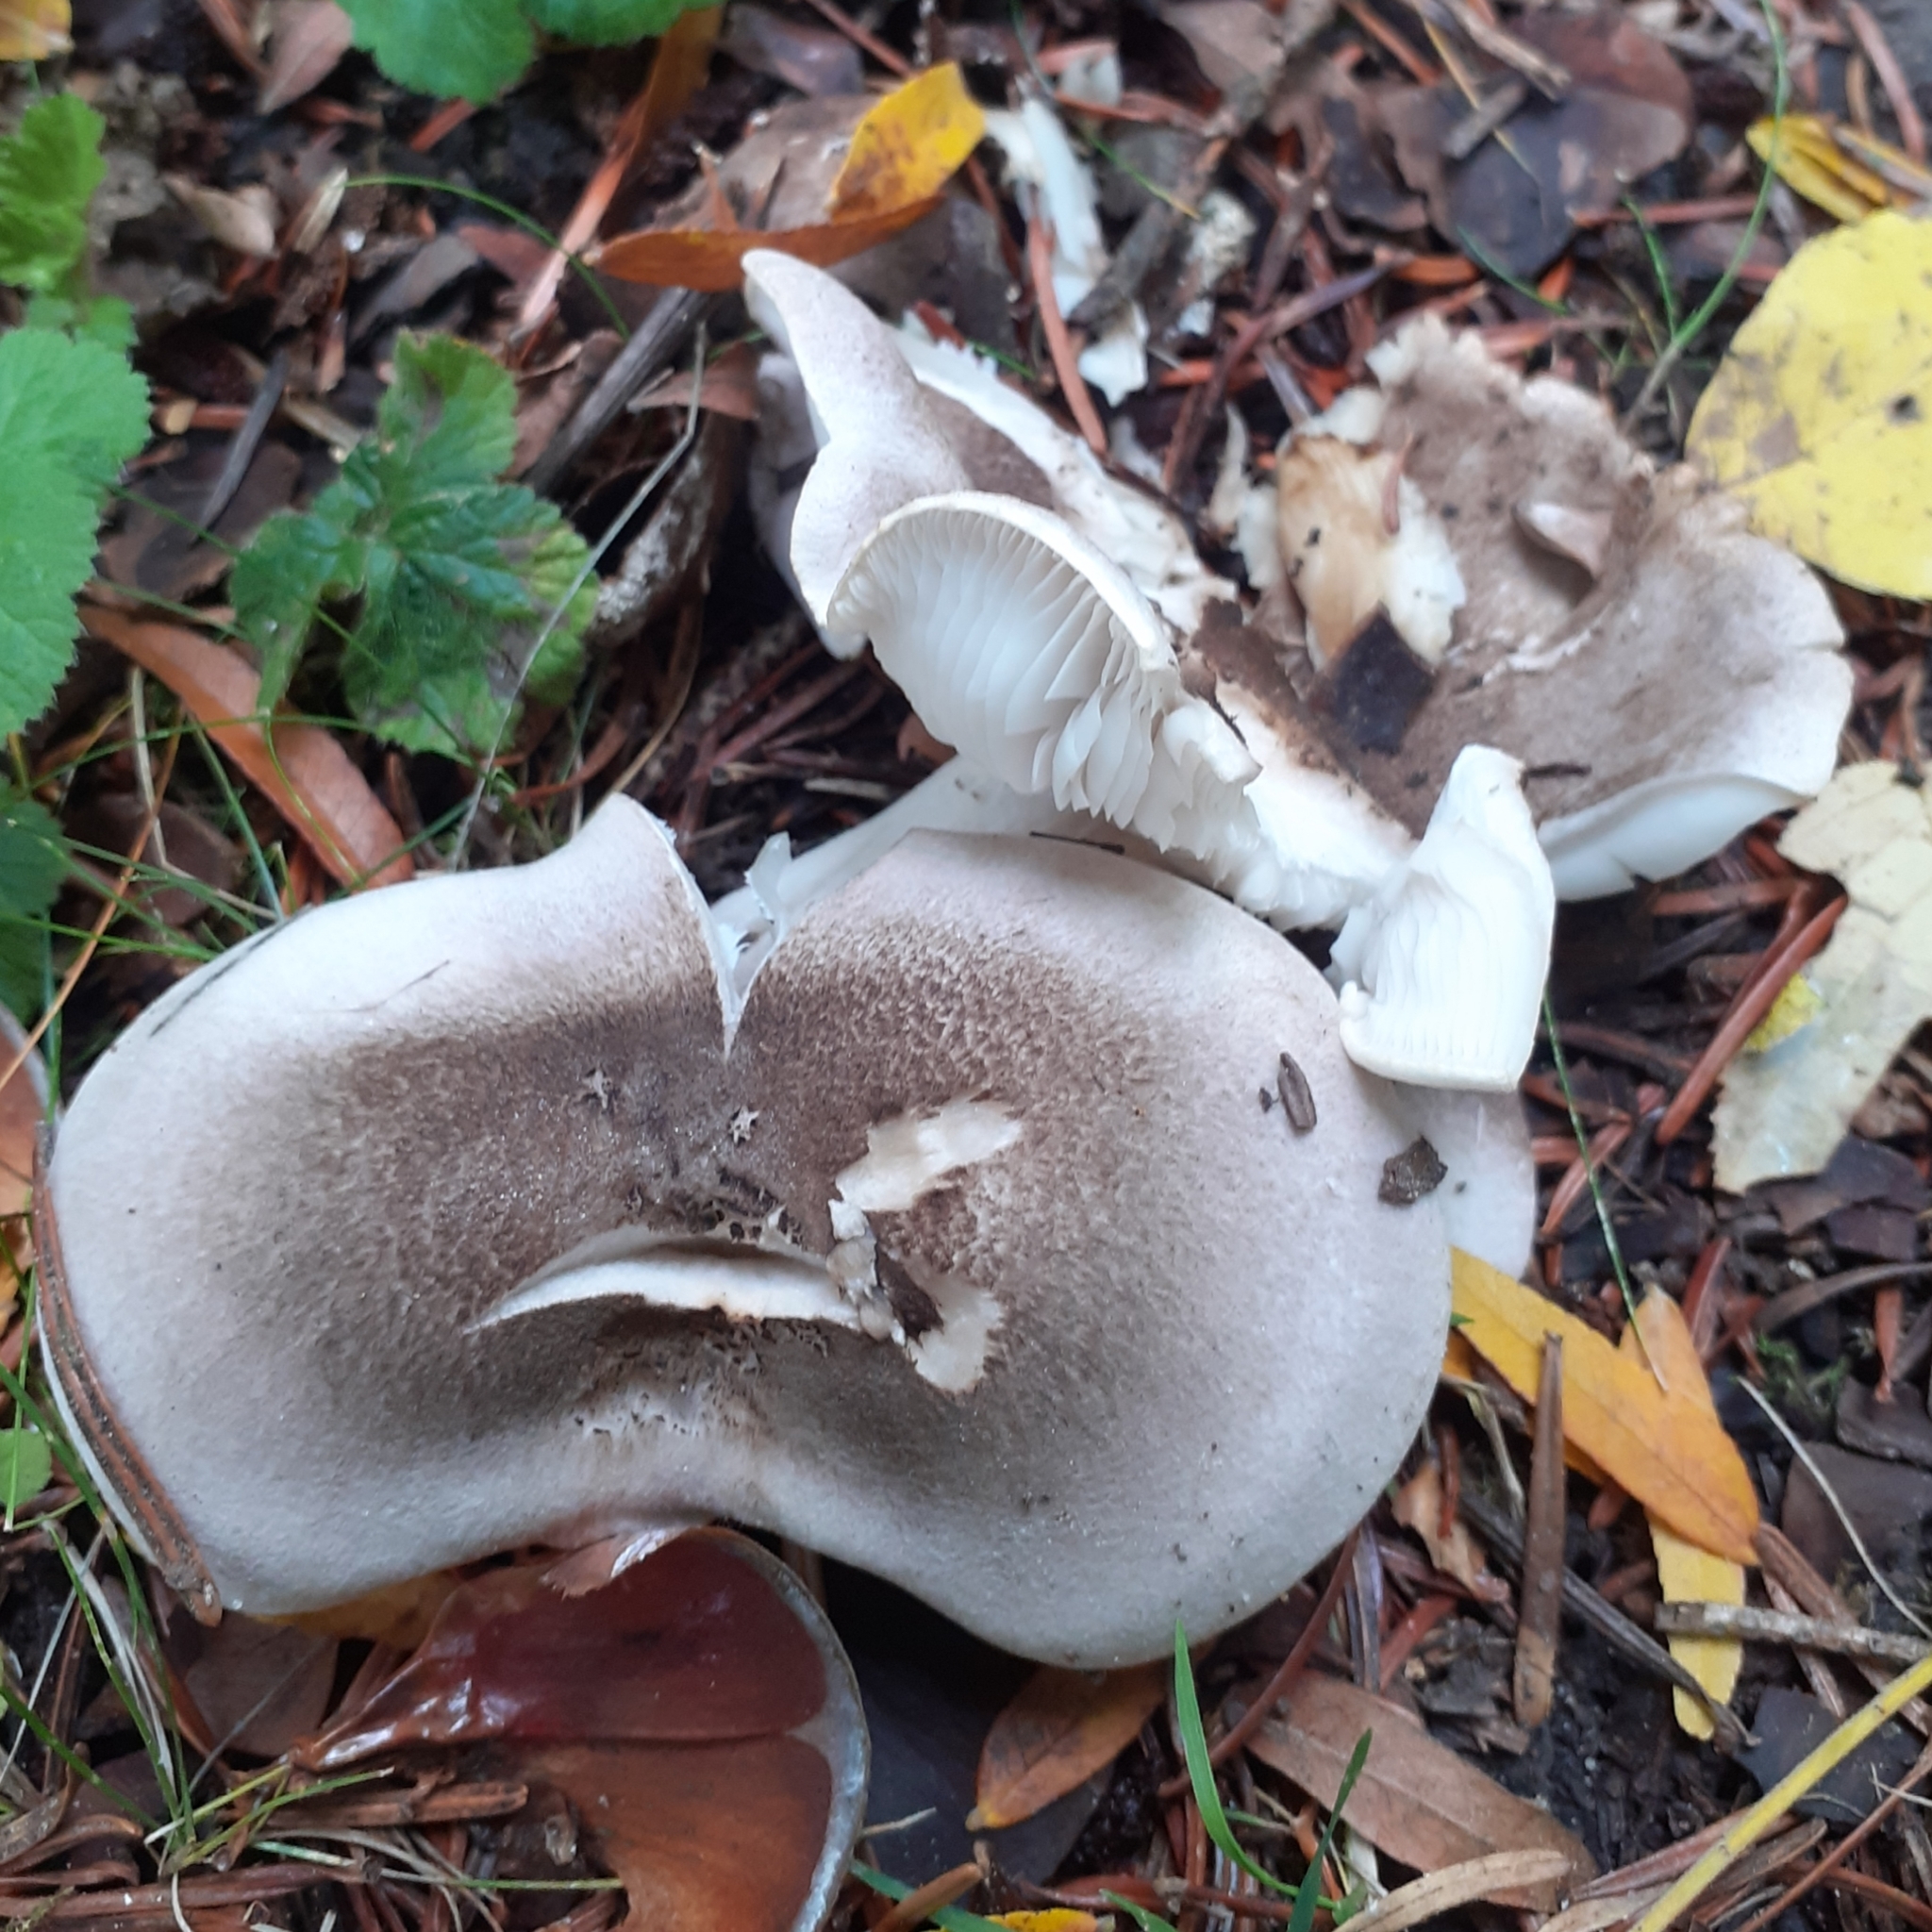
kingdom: Fungi
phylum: Basidiomycota
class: Agaricomycetes
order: Agaricales
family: Tricholomataceae
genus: Tricholoma
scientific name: Tricholoma scalpturatum
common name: Yellowing knight
